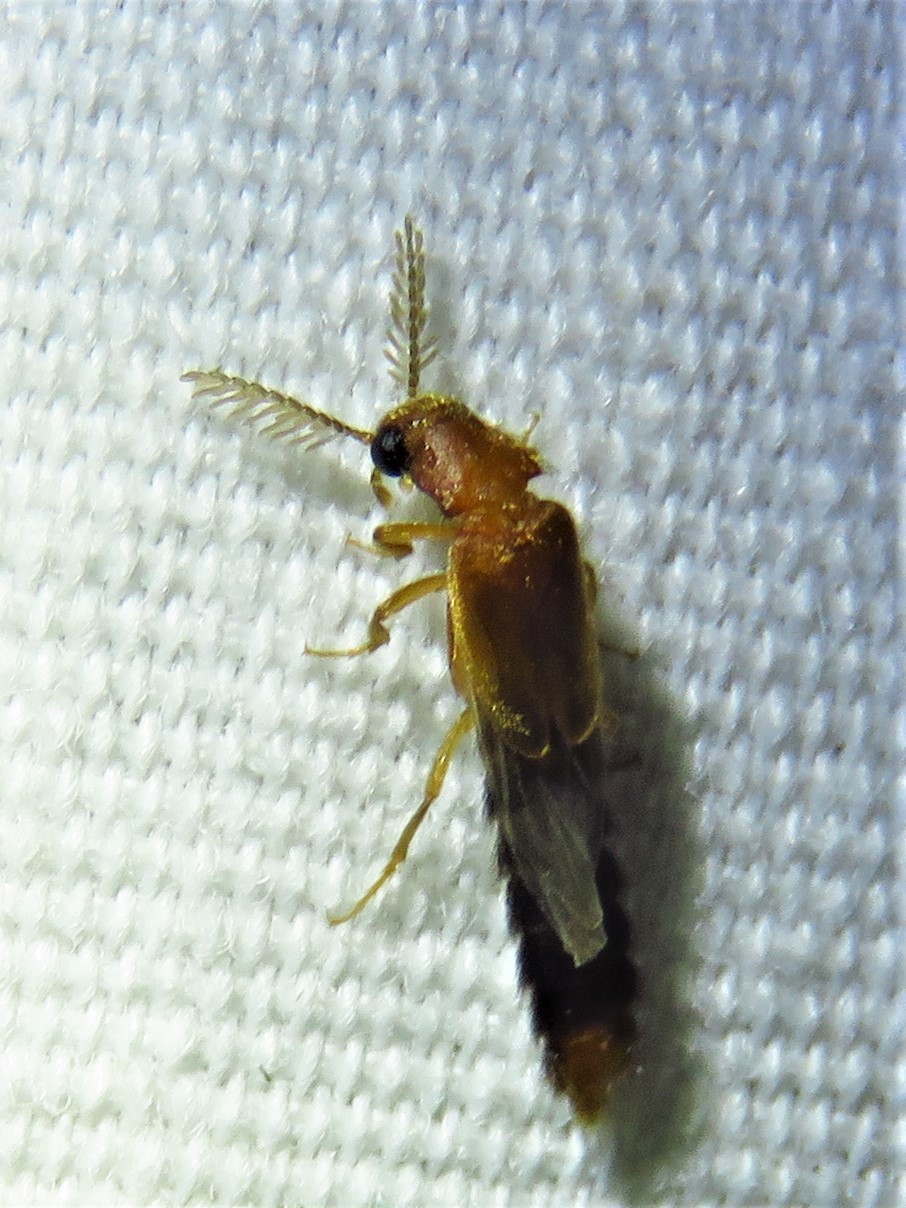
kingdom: Animalia
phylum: Arthropoda
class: Insecta
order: Coleoptera
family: Phengodidae
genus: Distremocephalus
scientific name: Distremocephalus texanus
